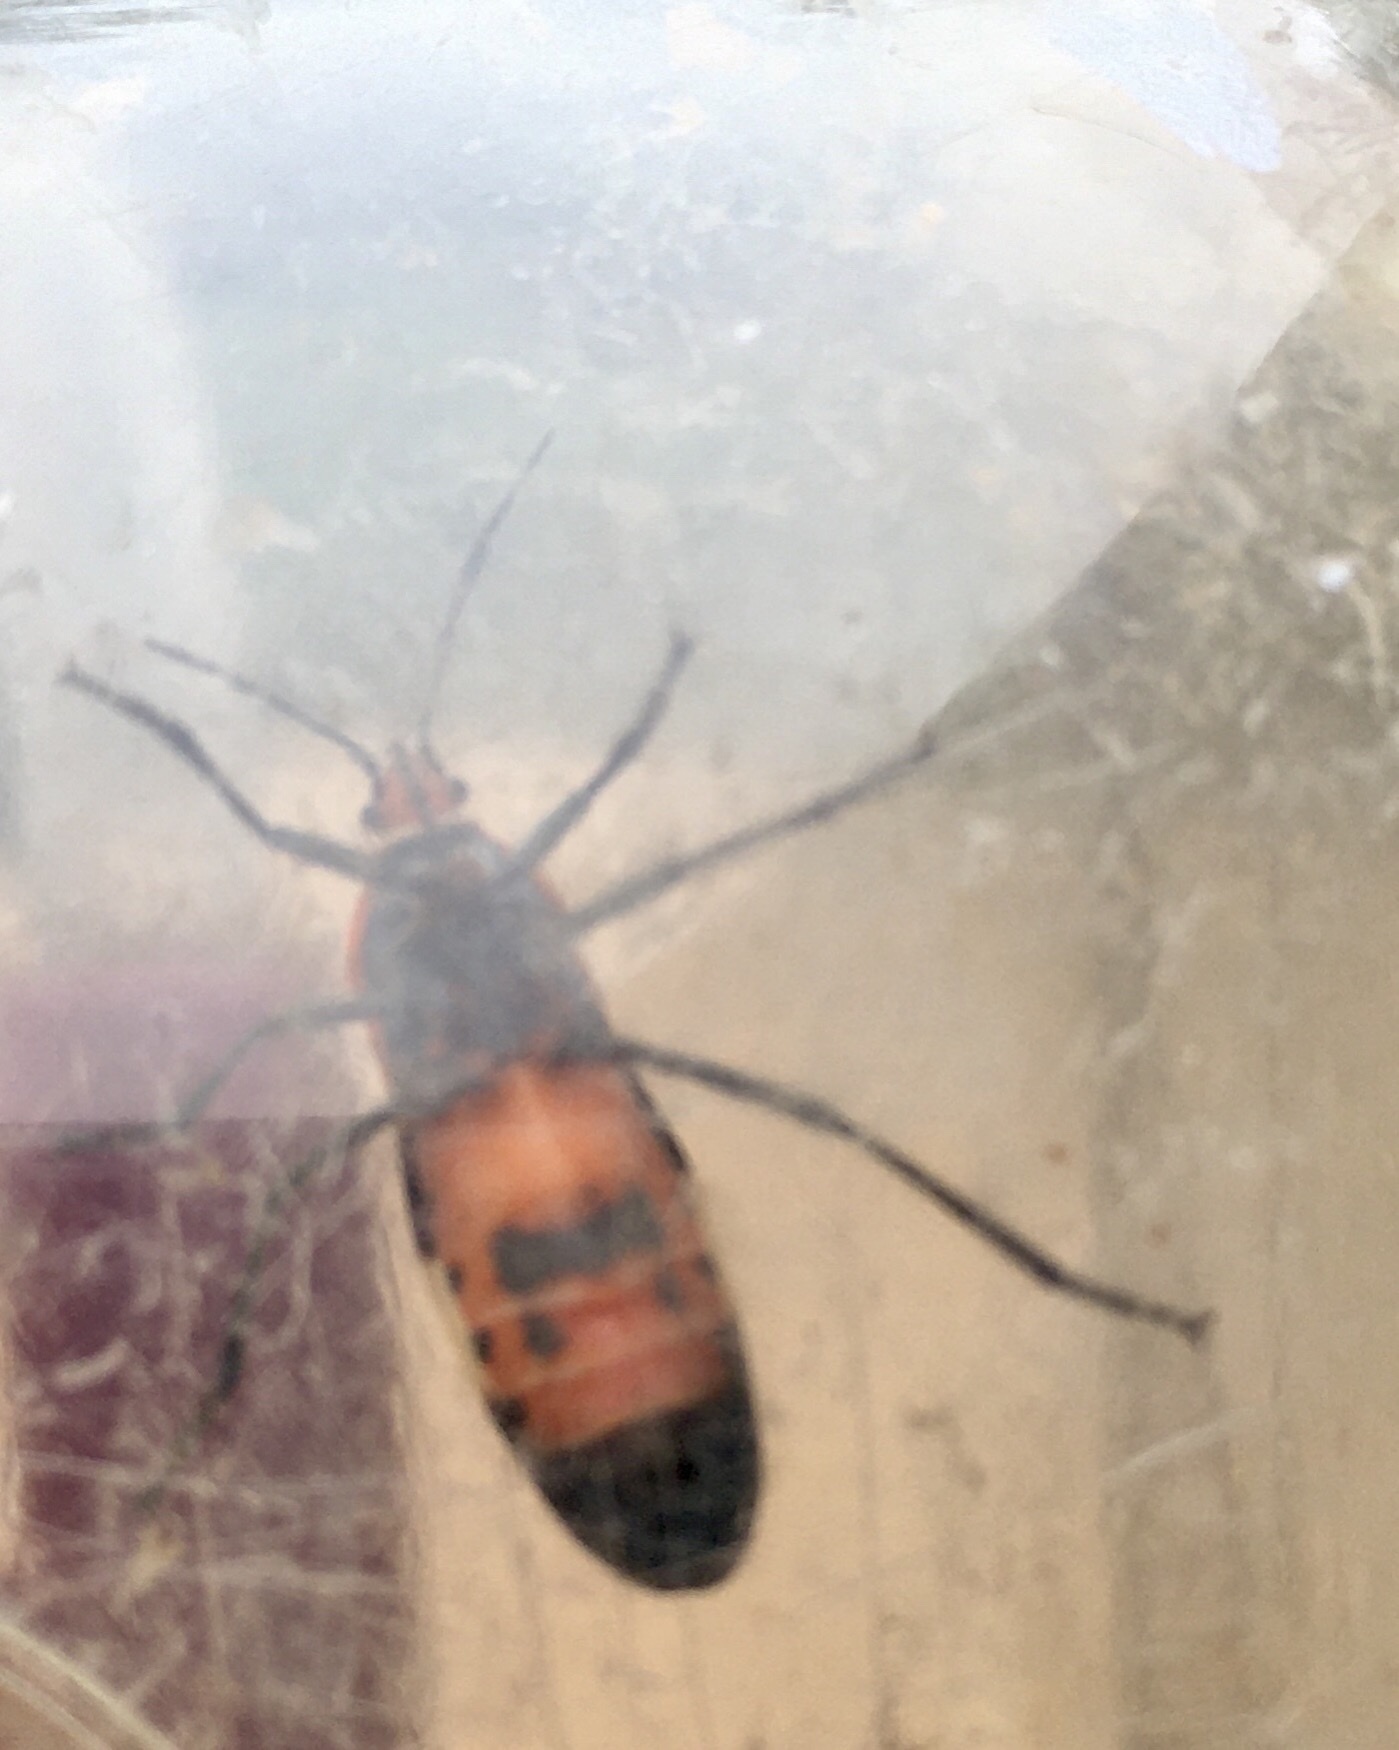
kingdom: Animalia
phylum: Arthropoda
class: Insecta
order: Hemiptera
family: Lygaeidae
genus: Oncopeltus
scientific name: Oncopeltus fasciatus
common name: Large milkweed bug
